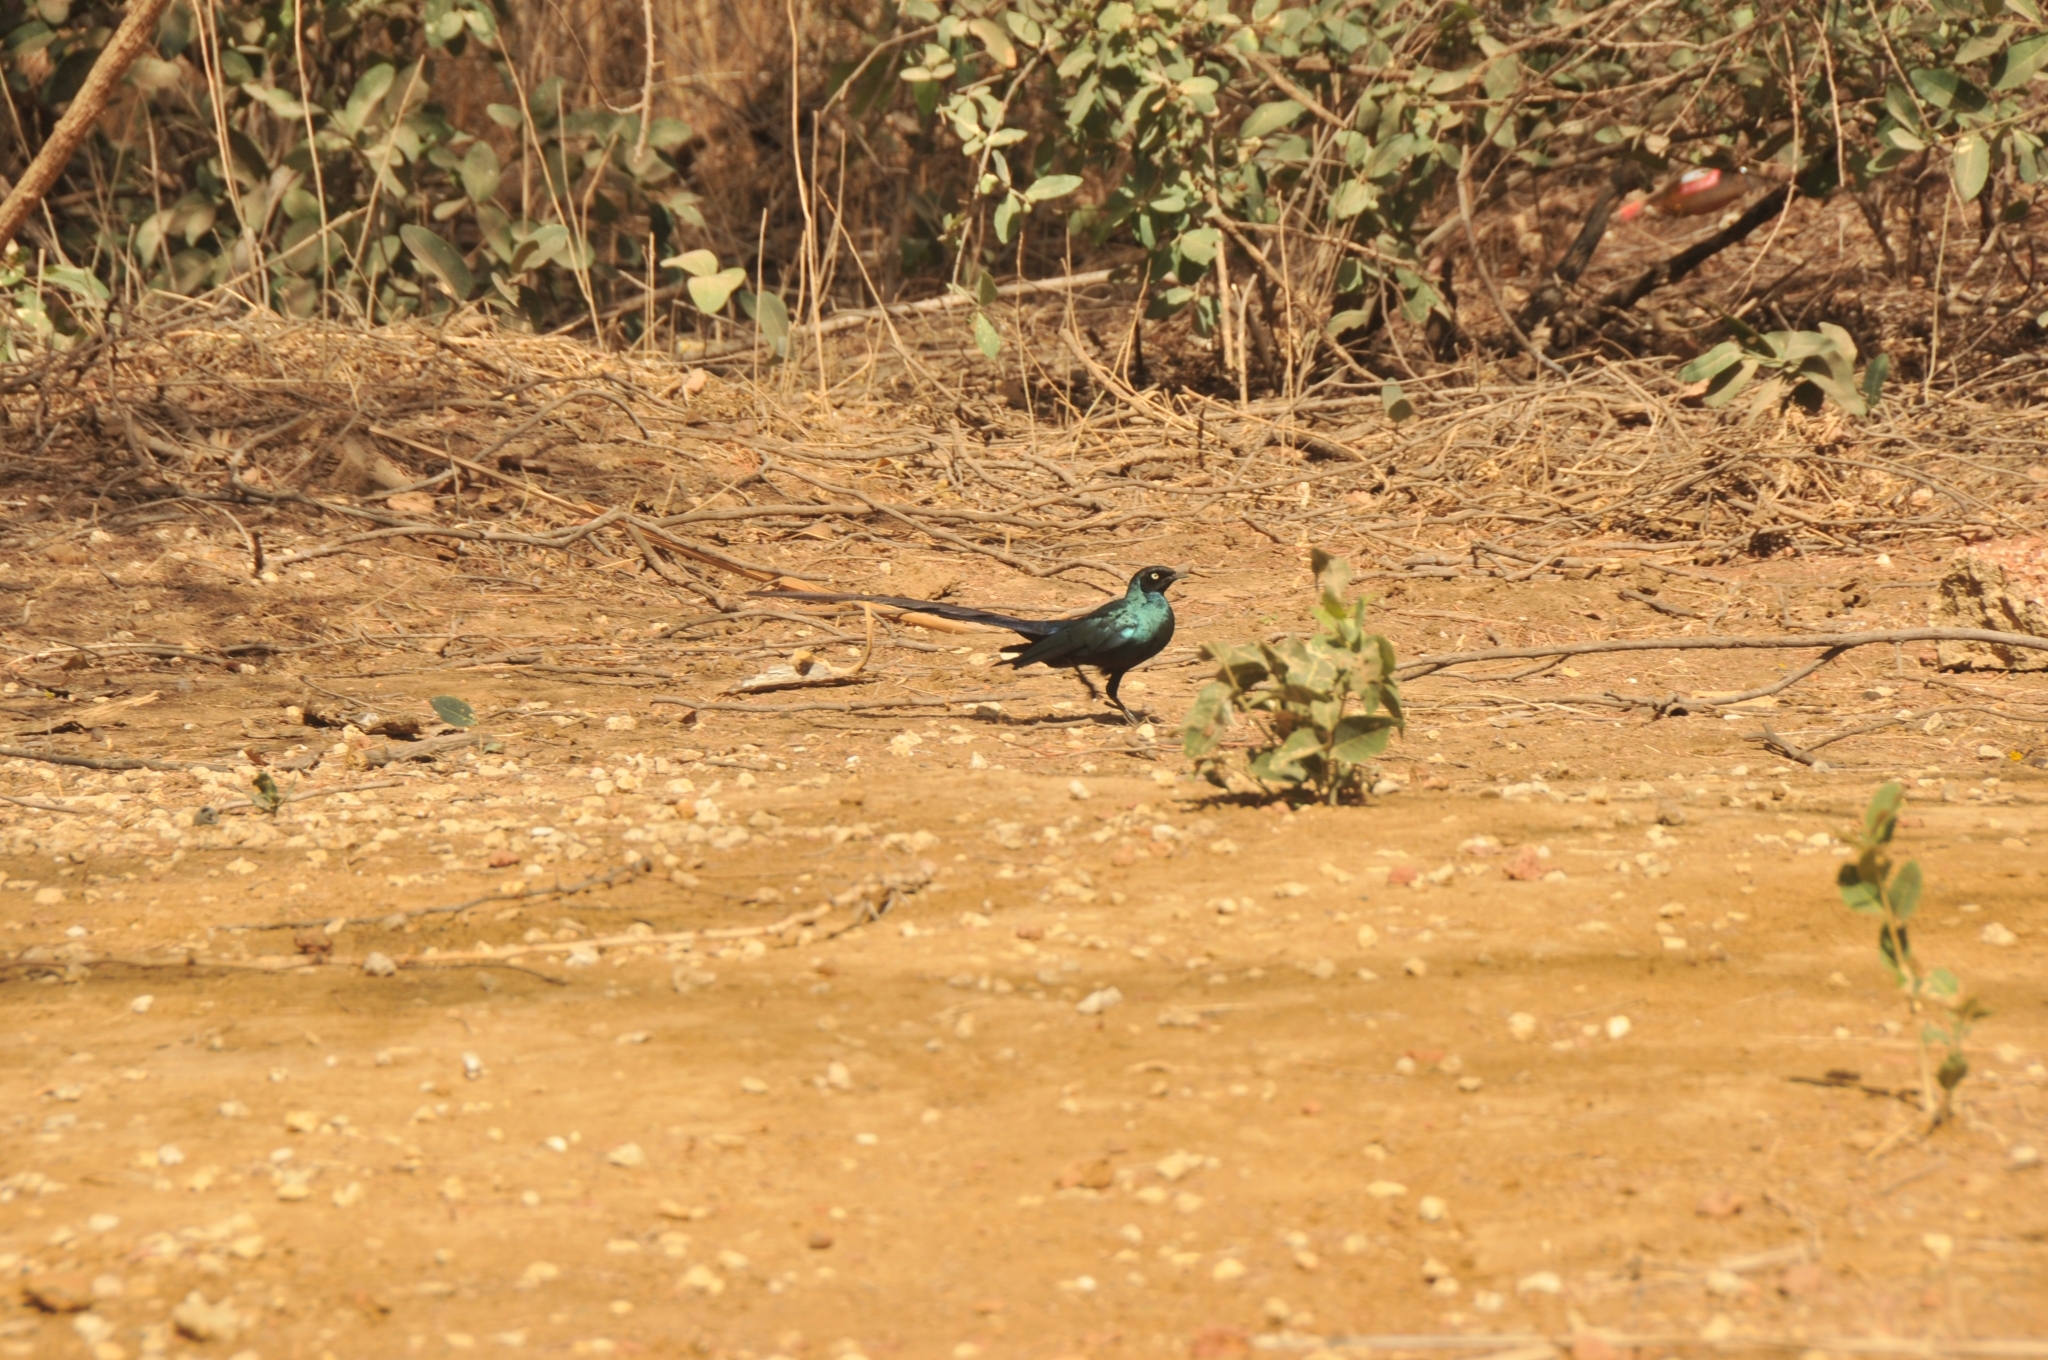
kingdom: Animalia
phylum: Chordata
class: Aves
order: Passeriformes
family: Sturnidae
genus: Lamprotornis
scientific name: Lamprotornis caudatus
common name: Long-tailed glossy starling
